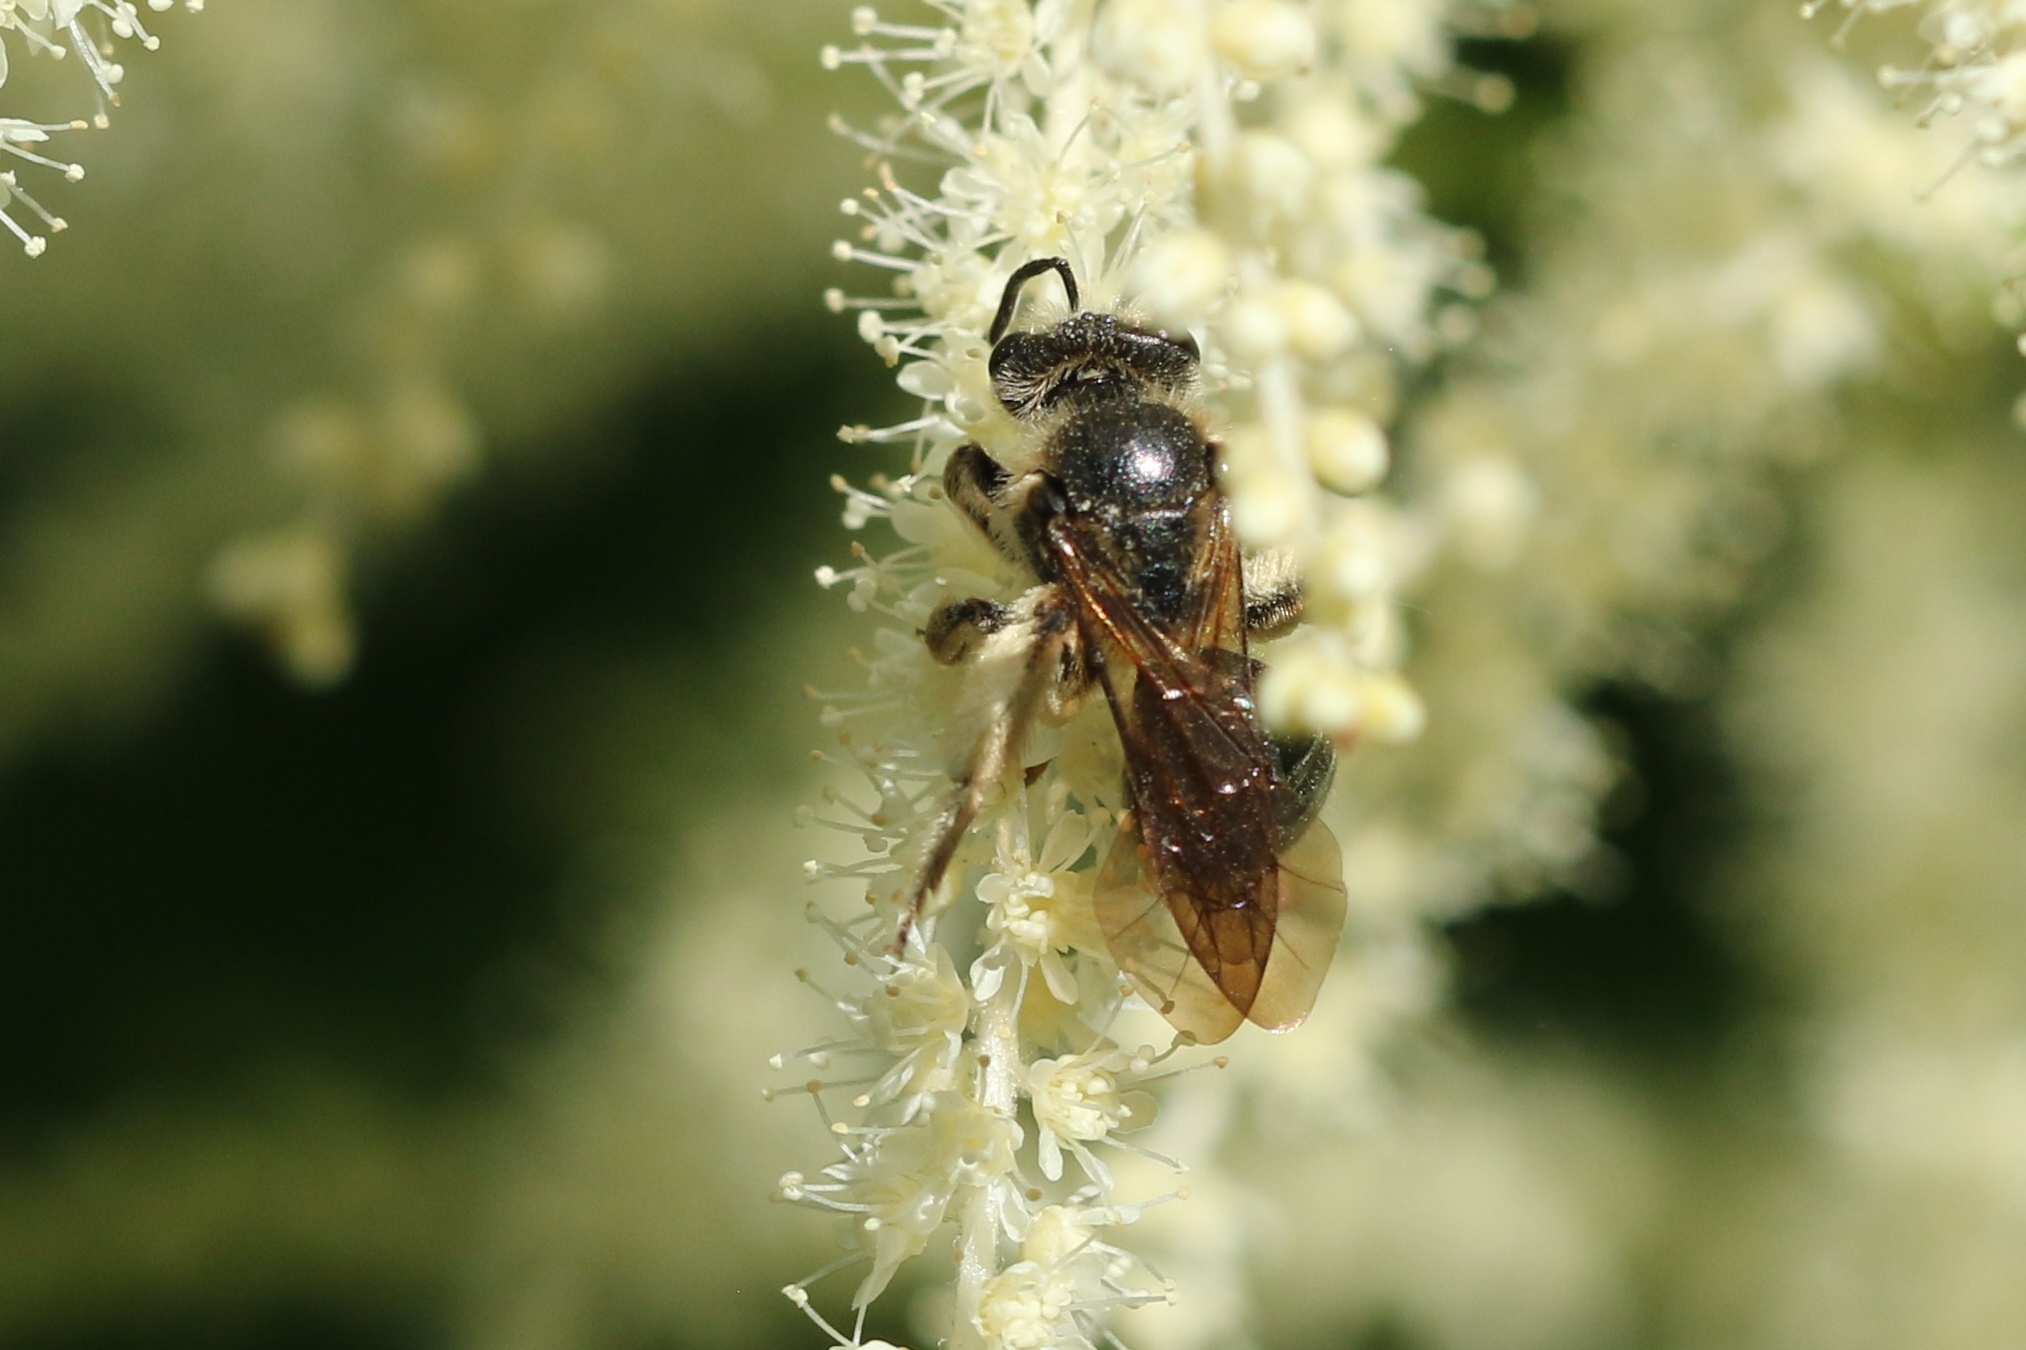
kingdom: Animalia
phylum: Arthropoda
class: Insecta
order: Hymenoptera
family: Andrenidae
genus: Andrena
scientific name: Andrena crataegi
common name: Hawthorn mining bee
